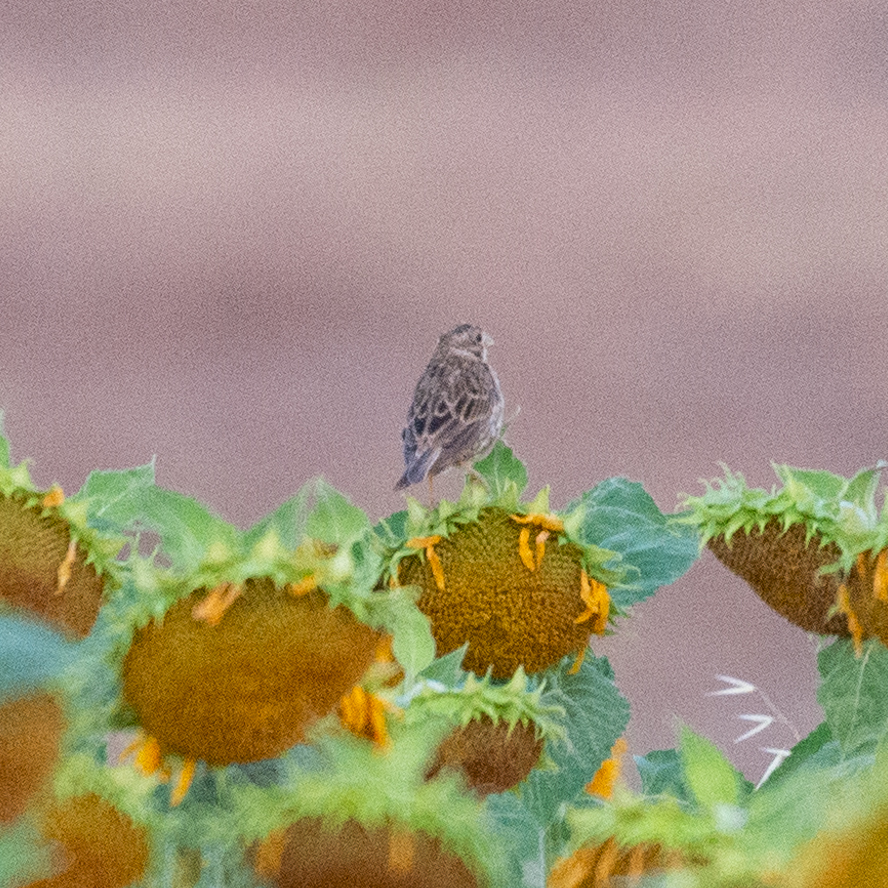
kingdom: Animalia
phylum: Chordata
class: Aves
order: Passeriformes
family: Emberizidae
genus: Emberiza
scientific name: Emberiza calandra
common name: Corn bunting
